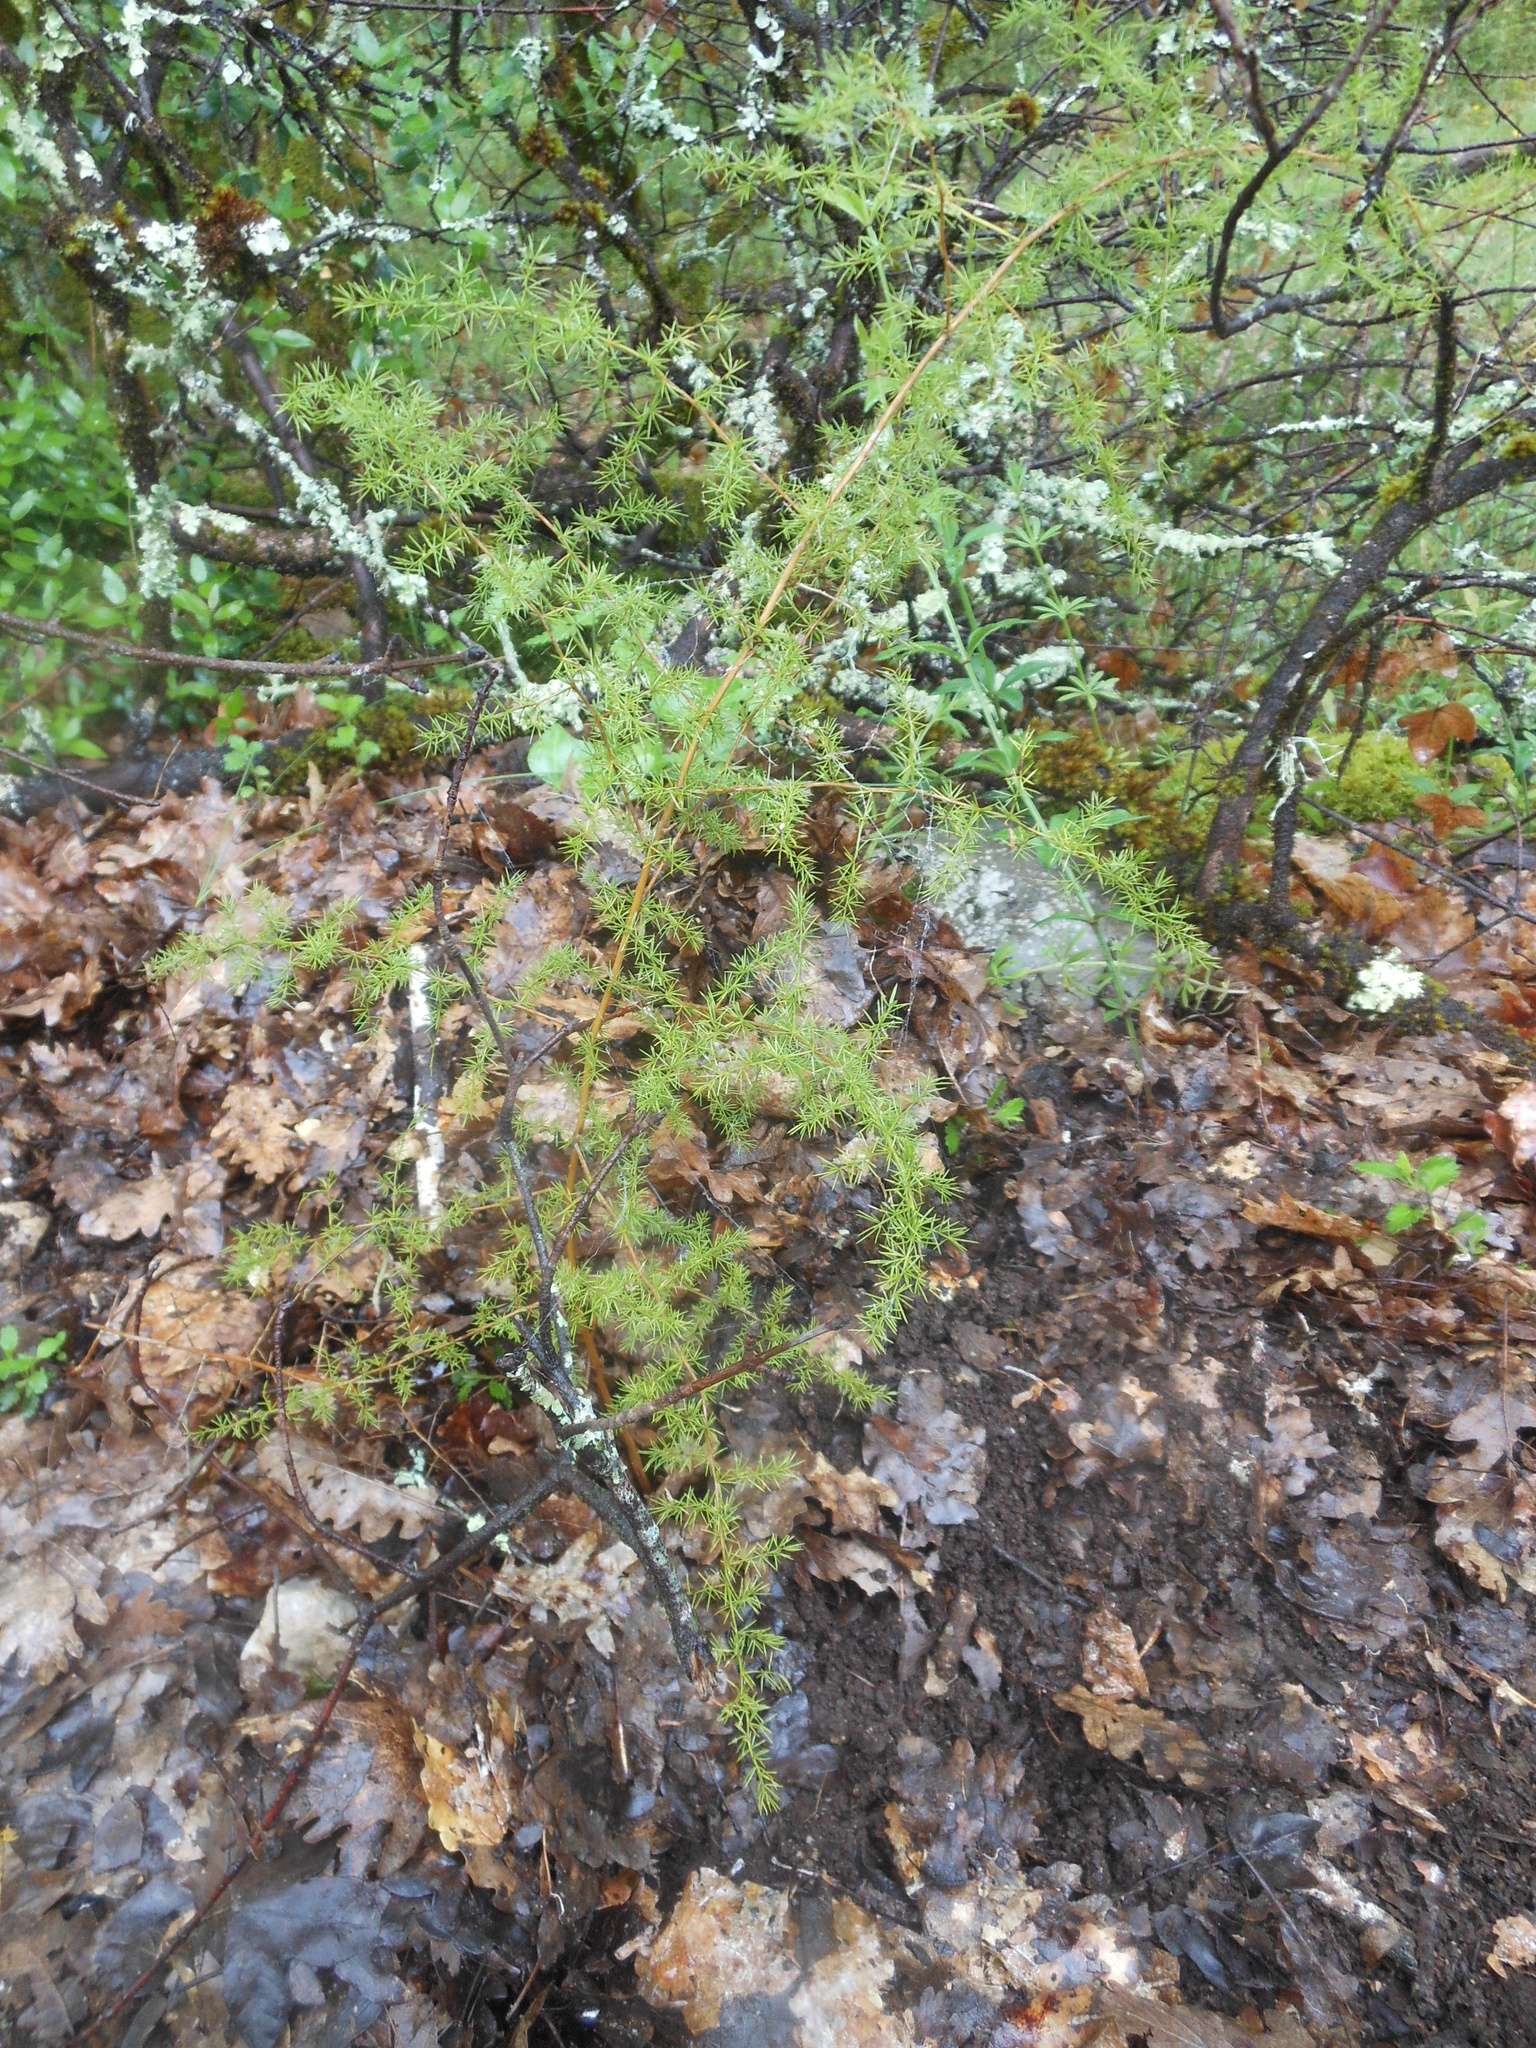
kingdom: Plantae
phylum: Tracheophyta
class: Liliopsida
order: Asparagales
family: Asparagaceae
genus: Asparagus
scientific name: Asparagus acutifolius
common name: Wild asparagus
